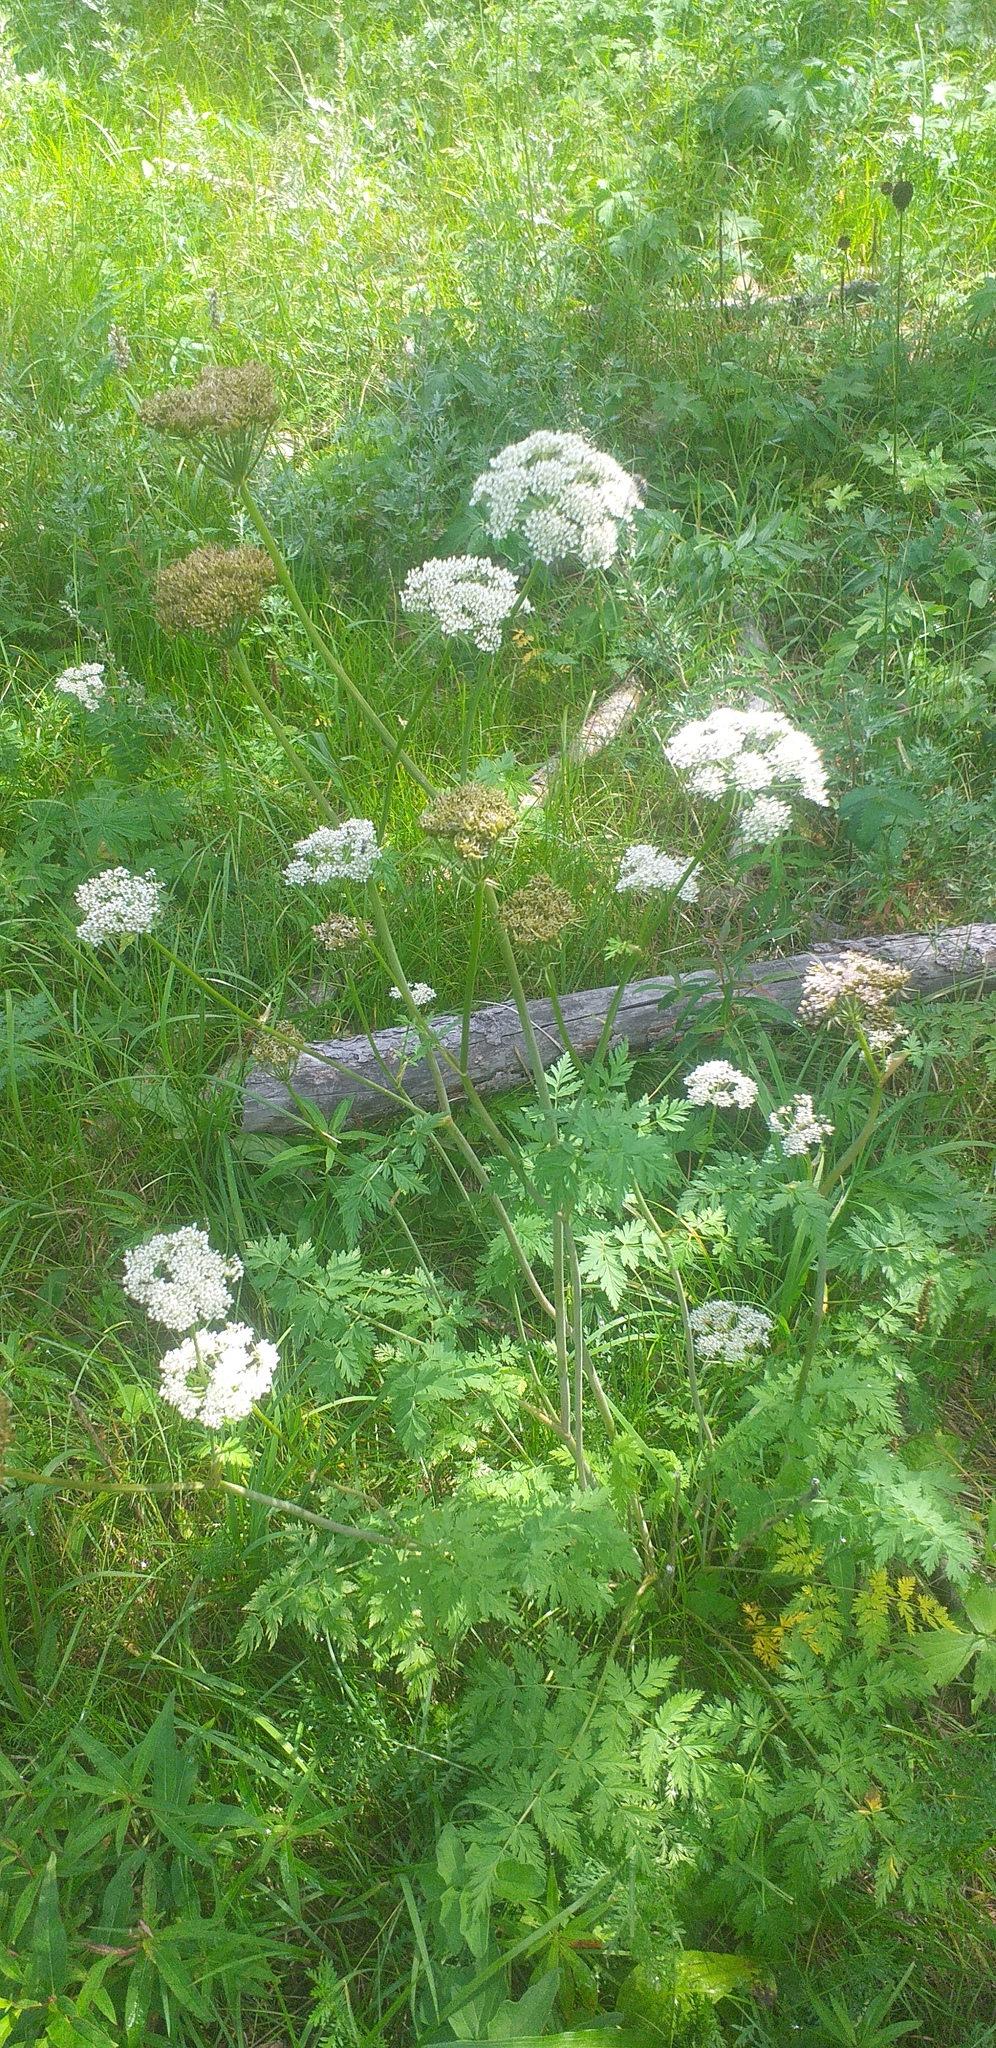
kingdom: Plantae
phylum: Tracheophyta
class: Magnoliopsida
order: Apiales
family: Apiaceae
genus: Conioselinum
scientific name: Conioselinum tataricum
